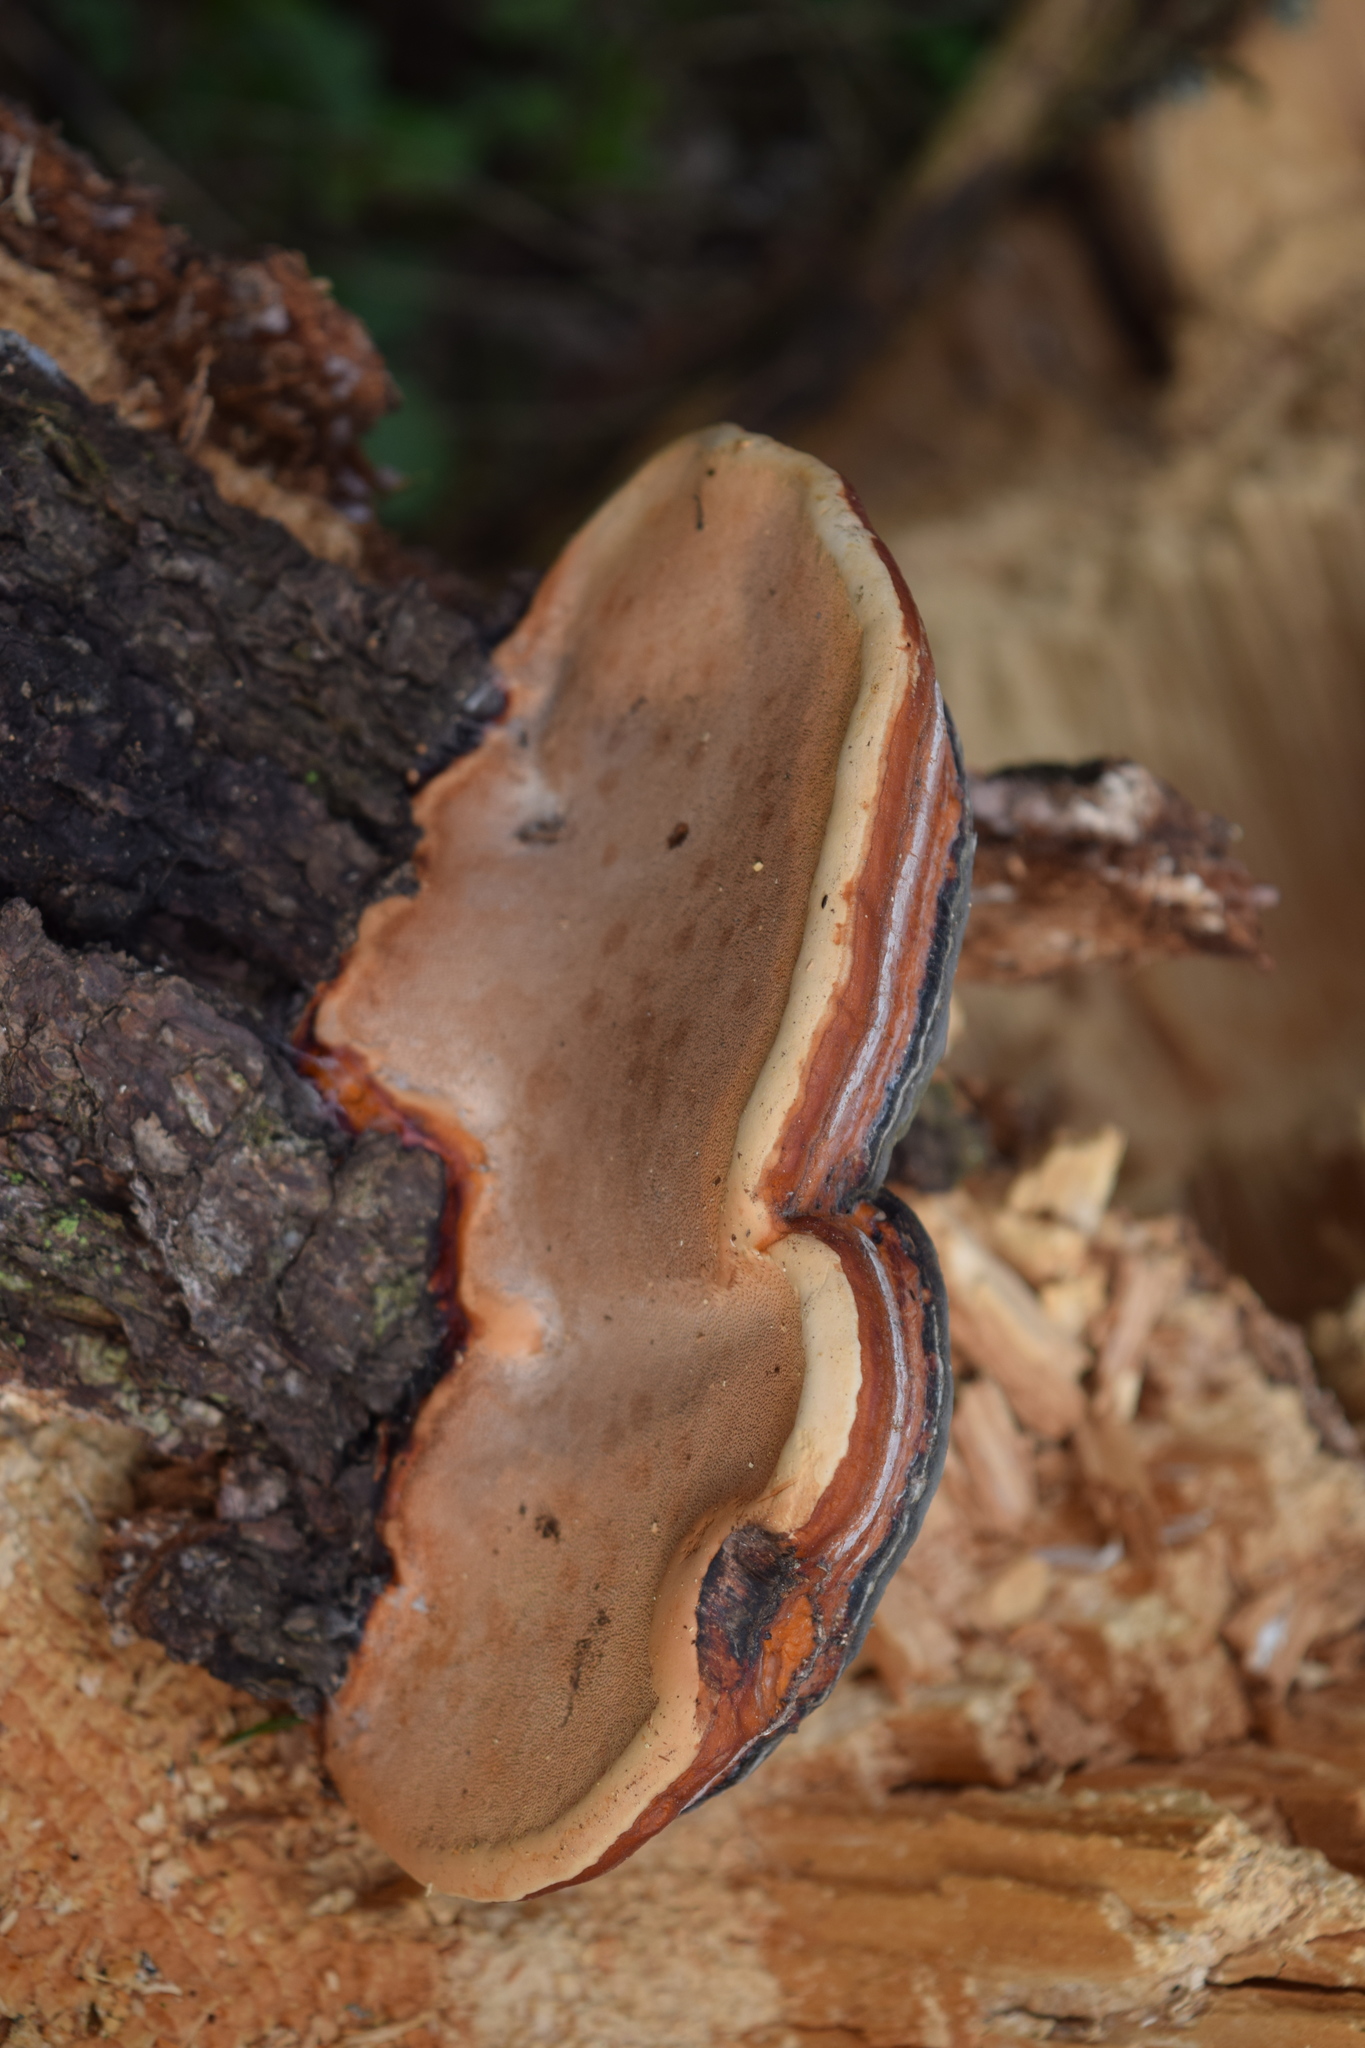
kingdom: Fungi
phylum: Basidiomycota
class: Agaricomycetes
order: Polyporales
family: Fomitopsidaceae
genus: Fomitopsis
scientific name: Fomitopsis pinicola
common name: Red-belted bracket
